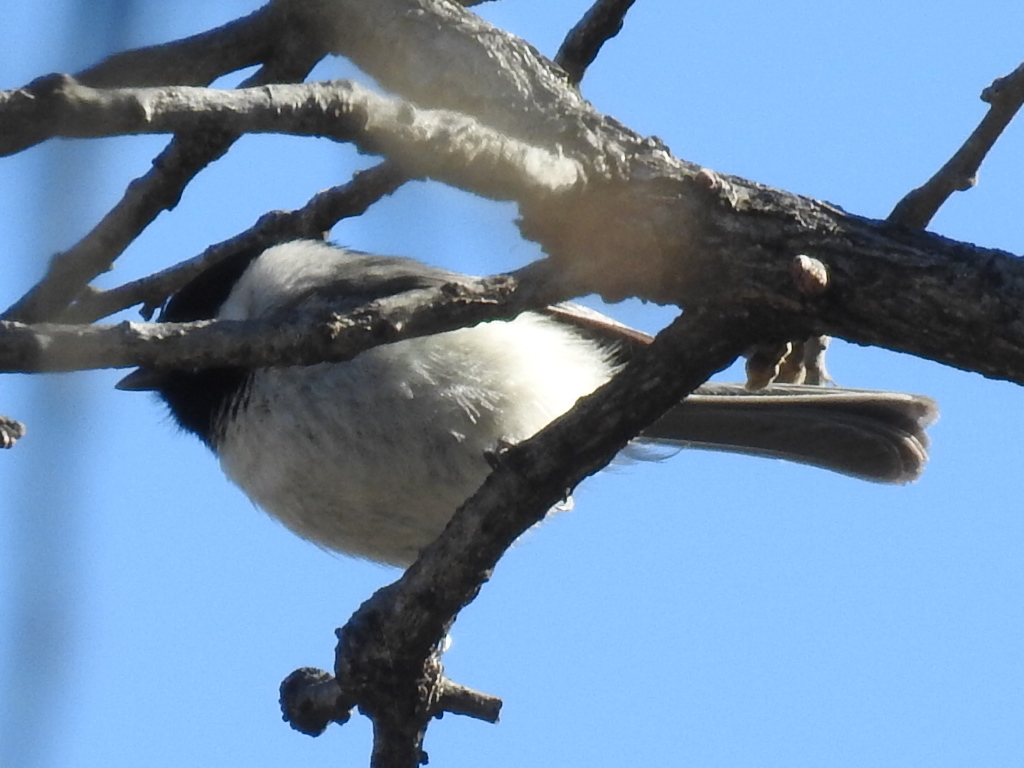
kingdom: Animalia
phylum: Chordata
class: Aves
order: Passeriformes
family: Paridae
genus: Poecile
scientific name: Poecile carolinensis
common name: Carolina chickadee
